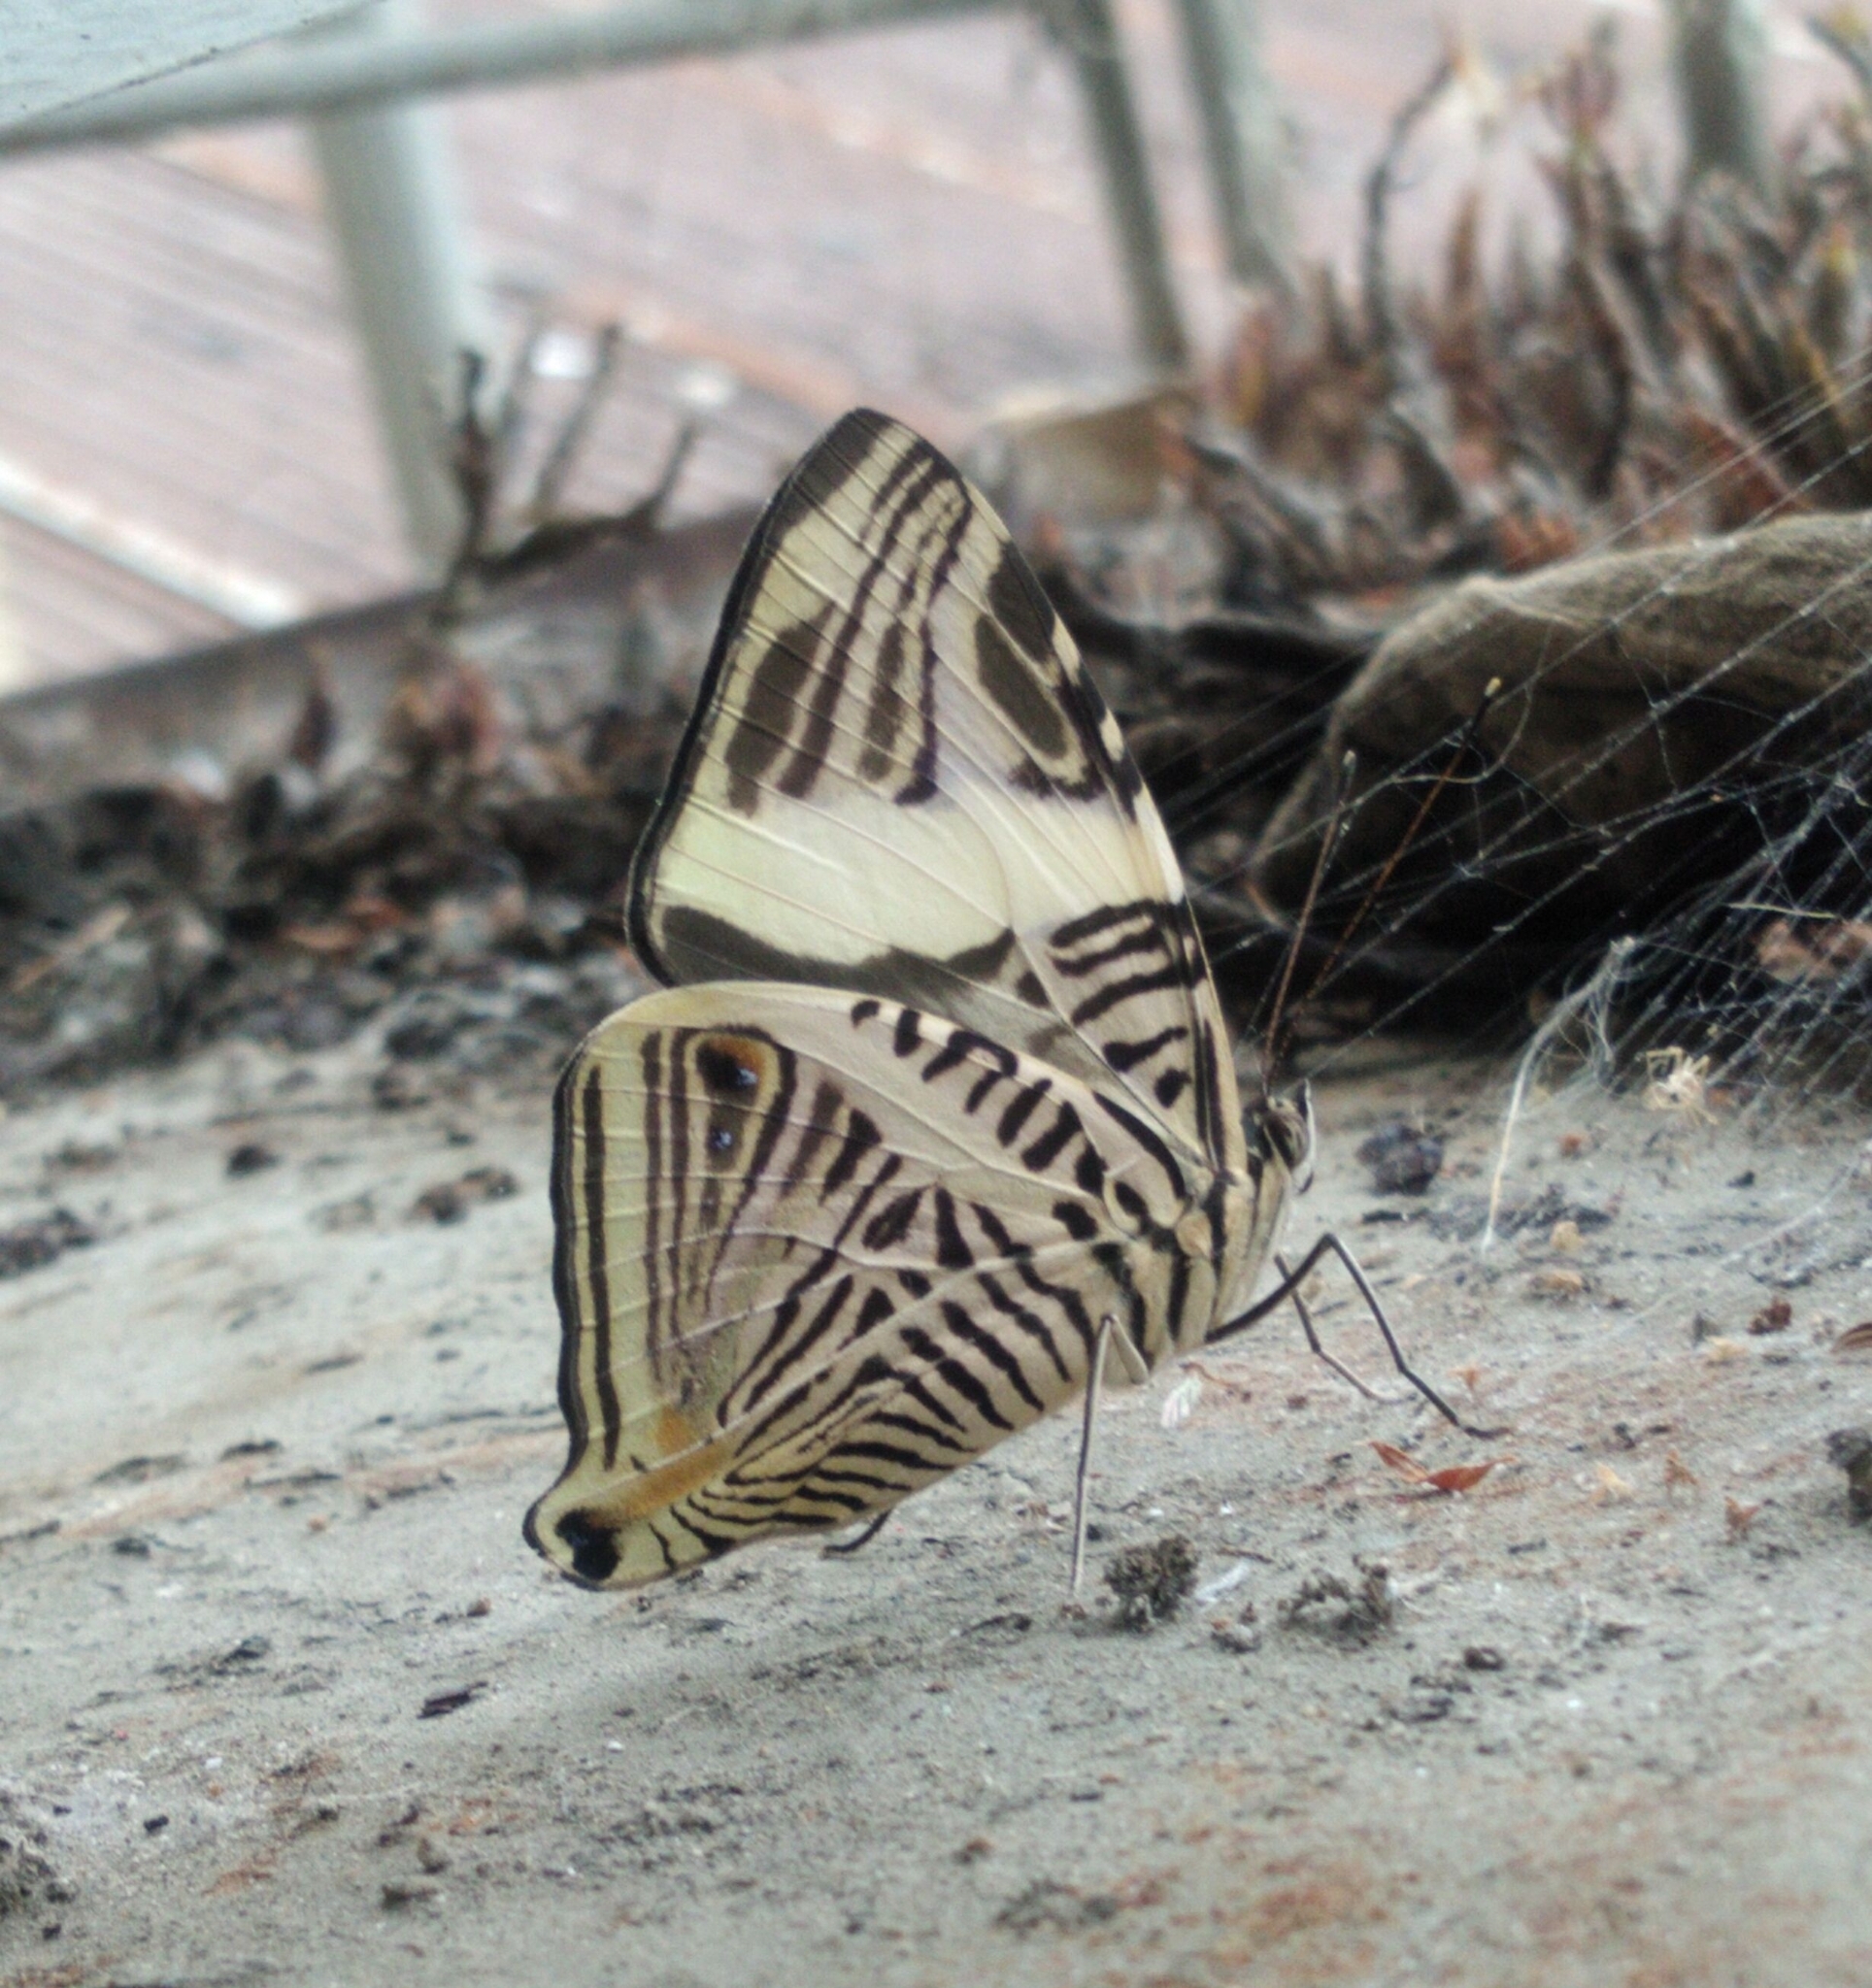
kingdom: Animalia
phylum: Arthropoda
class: Insecta
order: Lepidoptera
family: Nymphalidae
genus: Colobura
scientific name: Colobura dirce
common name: Dirce beauty
